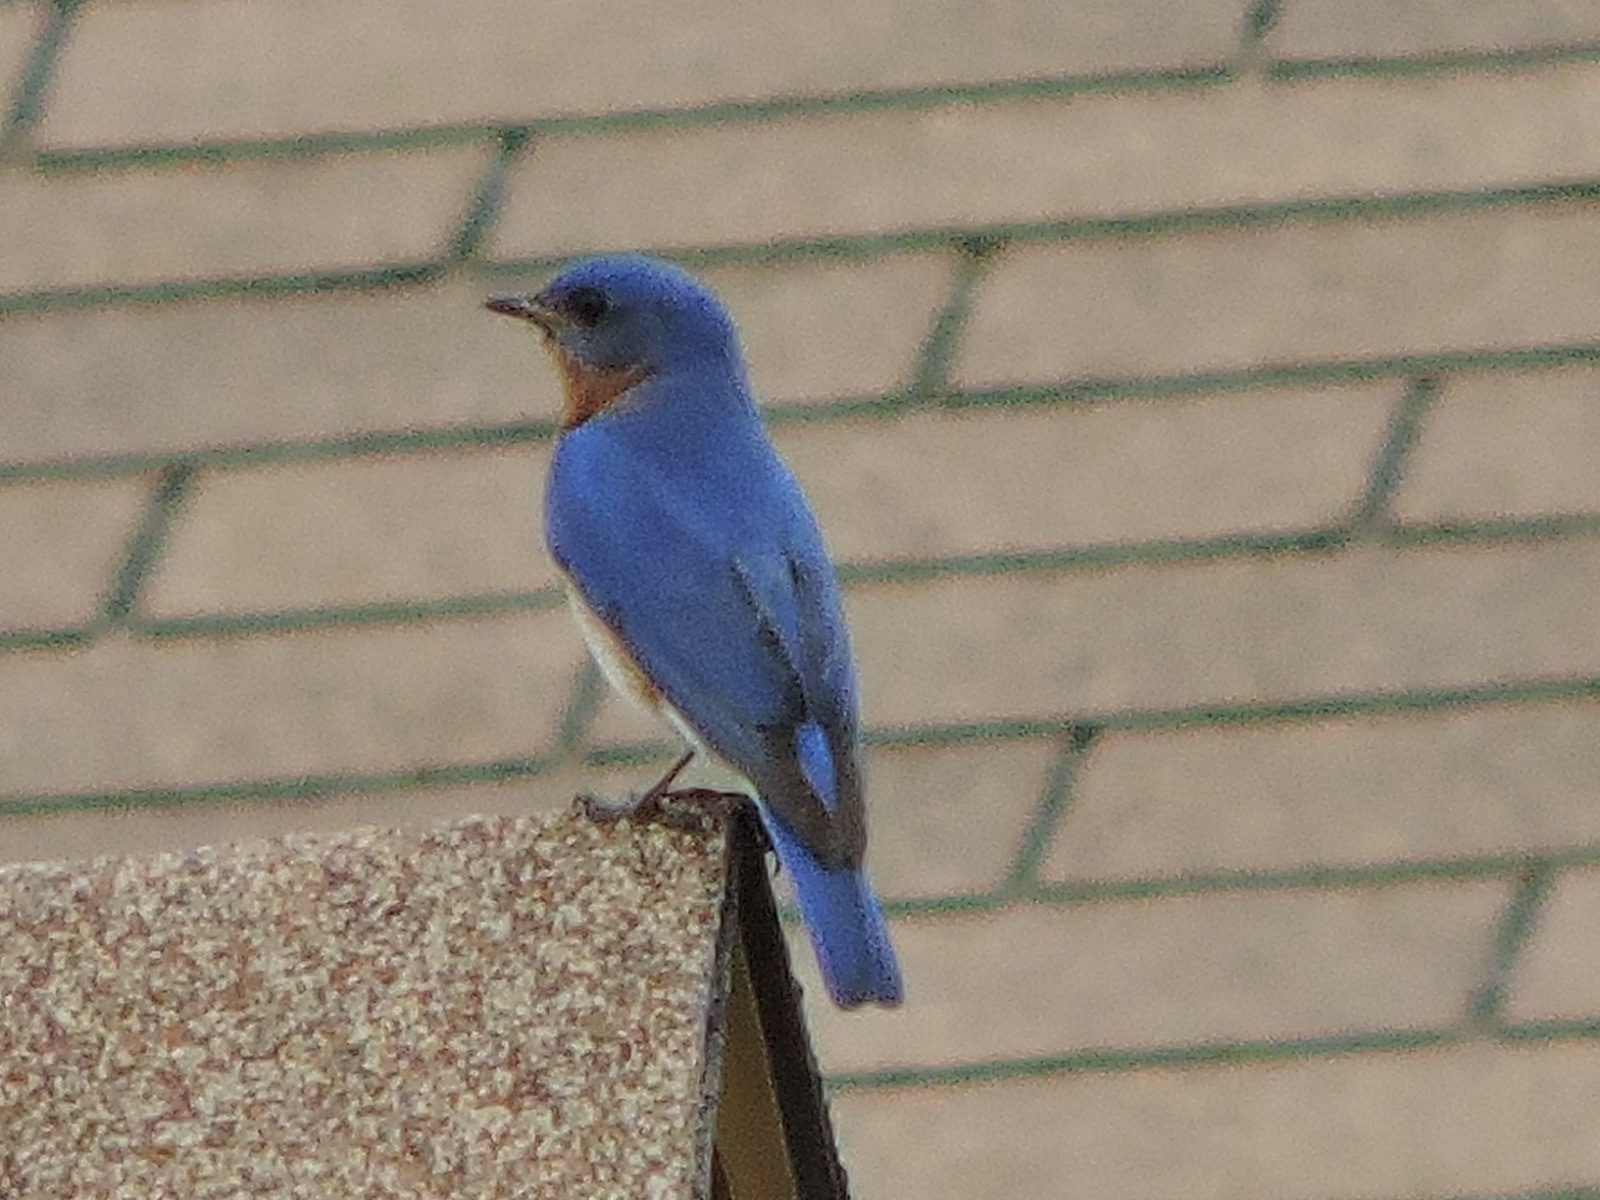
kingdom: Animalia
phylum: Chordata
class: Aves
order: Passeriformes
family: Turdidae
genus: Sialia
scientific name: Sialia sialis
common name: Eastern bluebird
